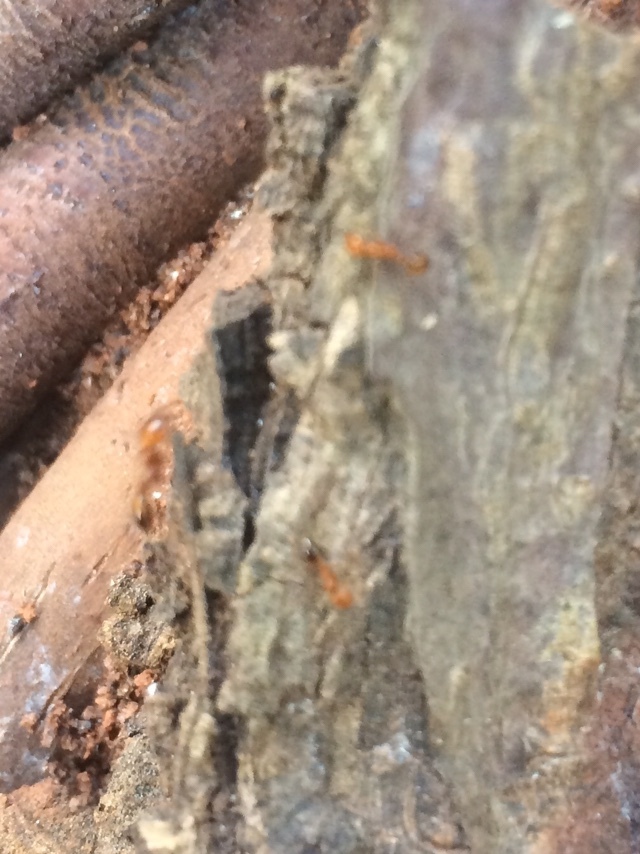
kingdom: Animalia
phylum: Arthropoda
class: Insecta
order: Hymenoptera
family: Formicidae
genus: Solenopsis
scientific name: Solenopsis geminata
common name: Tropical fire ant
